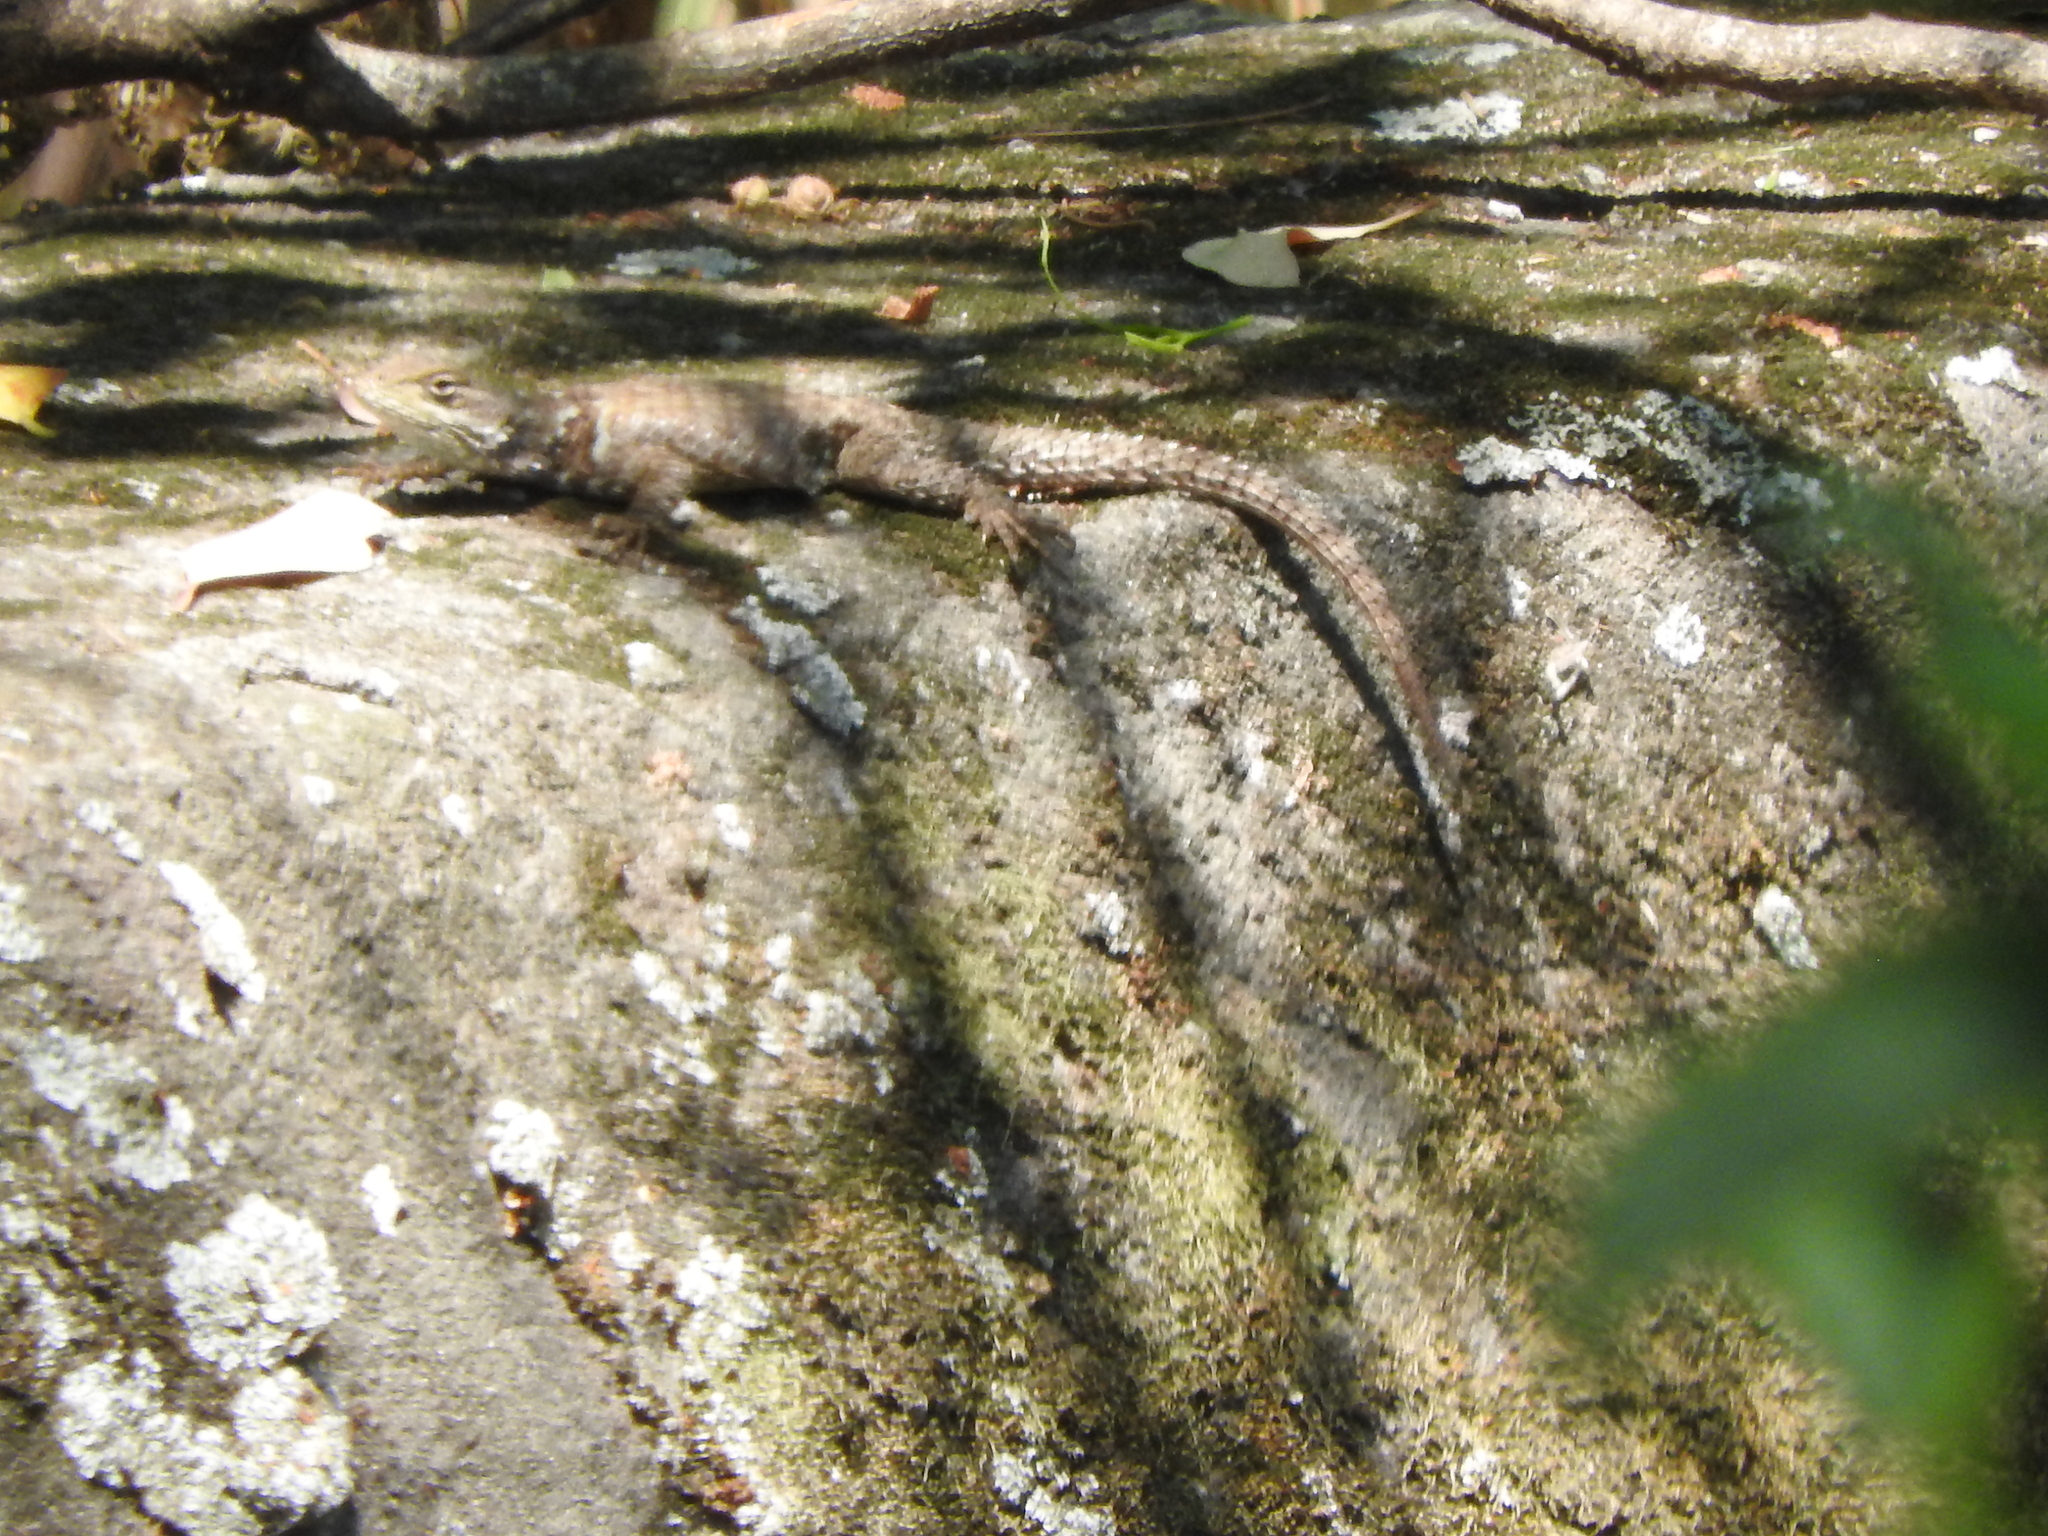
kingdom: Animalia
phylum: Chordata
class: Squamata
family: Phrynosomatidae
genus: Sceloporus
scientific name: Sceloporus torquatus
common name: Central plateau torquate lizard [melanogaster]
